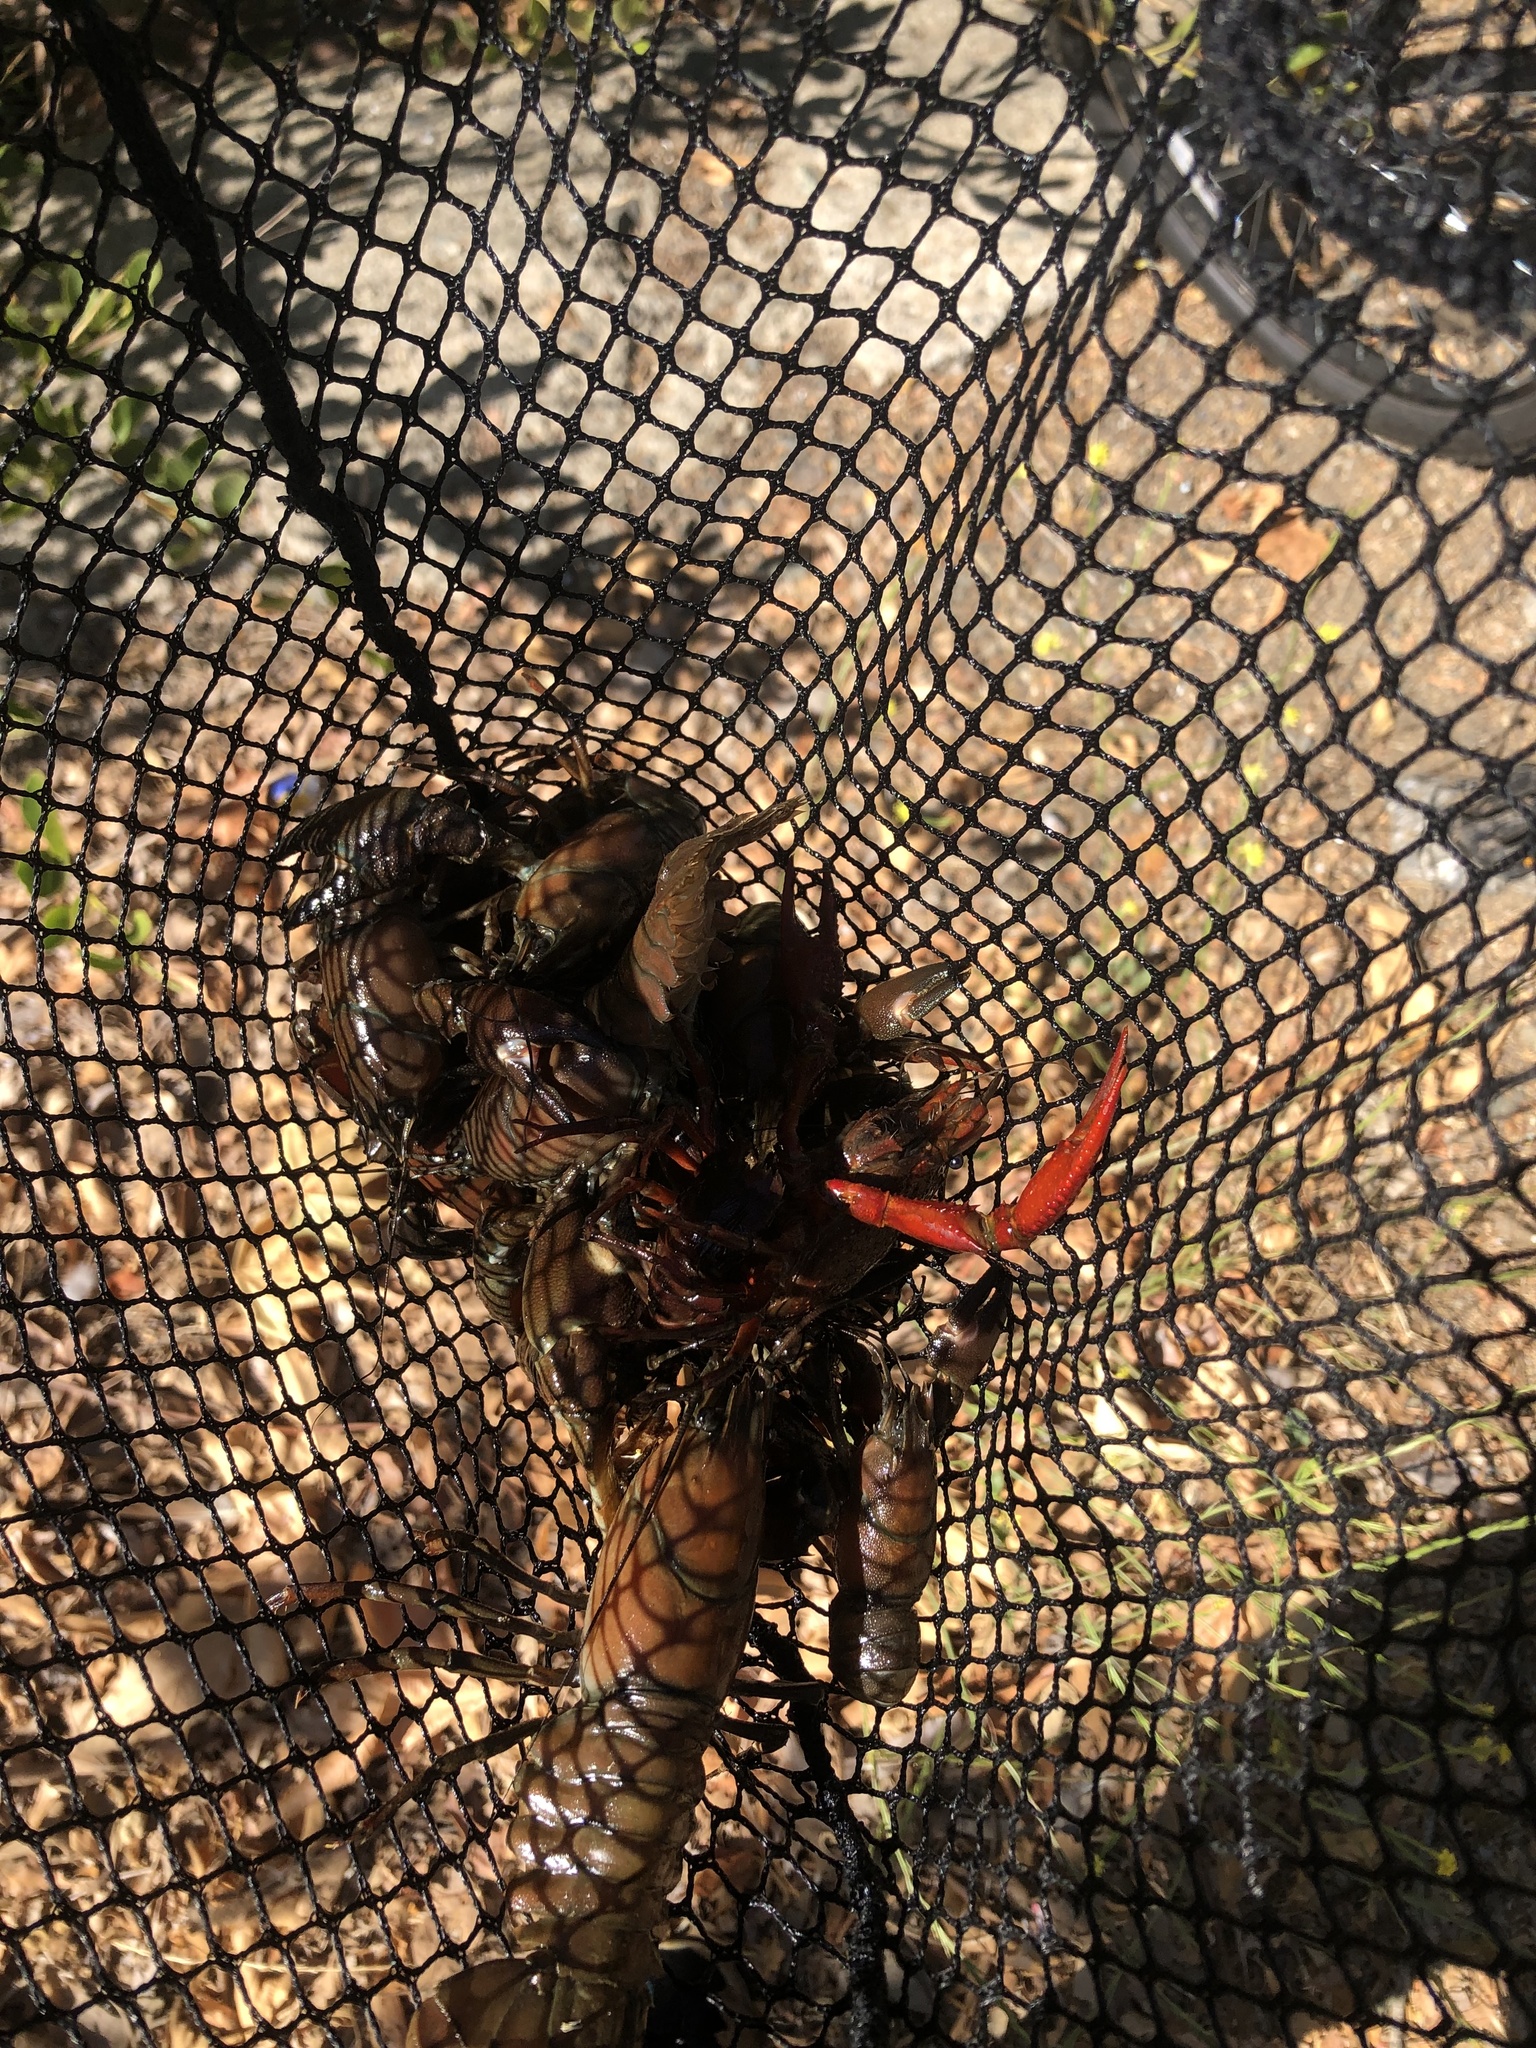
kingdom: Animalia
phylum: Arthropoda
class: Malacostraca
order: Decapoda
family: Astacidae
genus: Pacifastacus
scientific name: Pacifastacus leniusculus
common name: Signal crayfish
